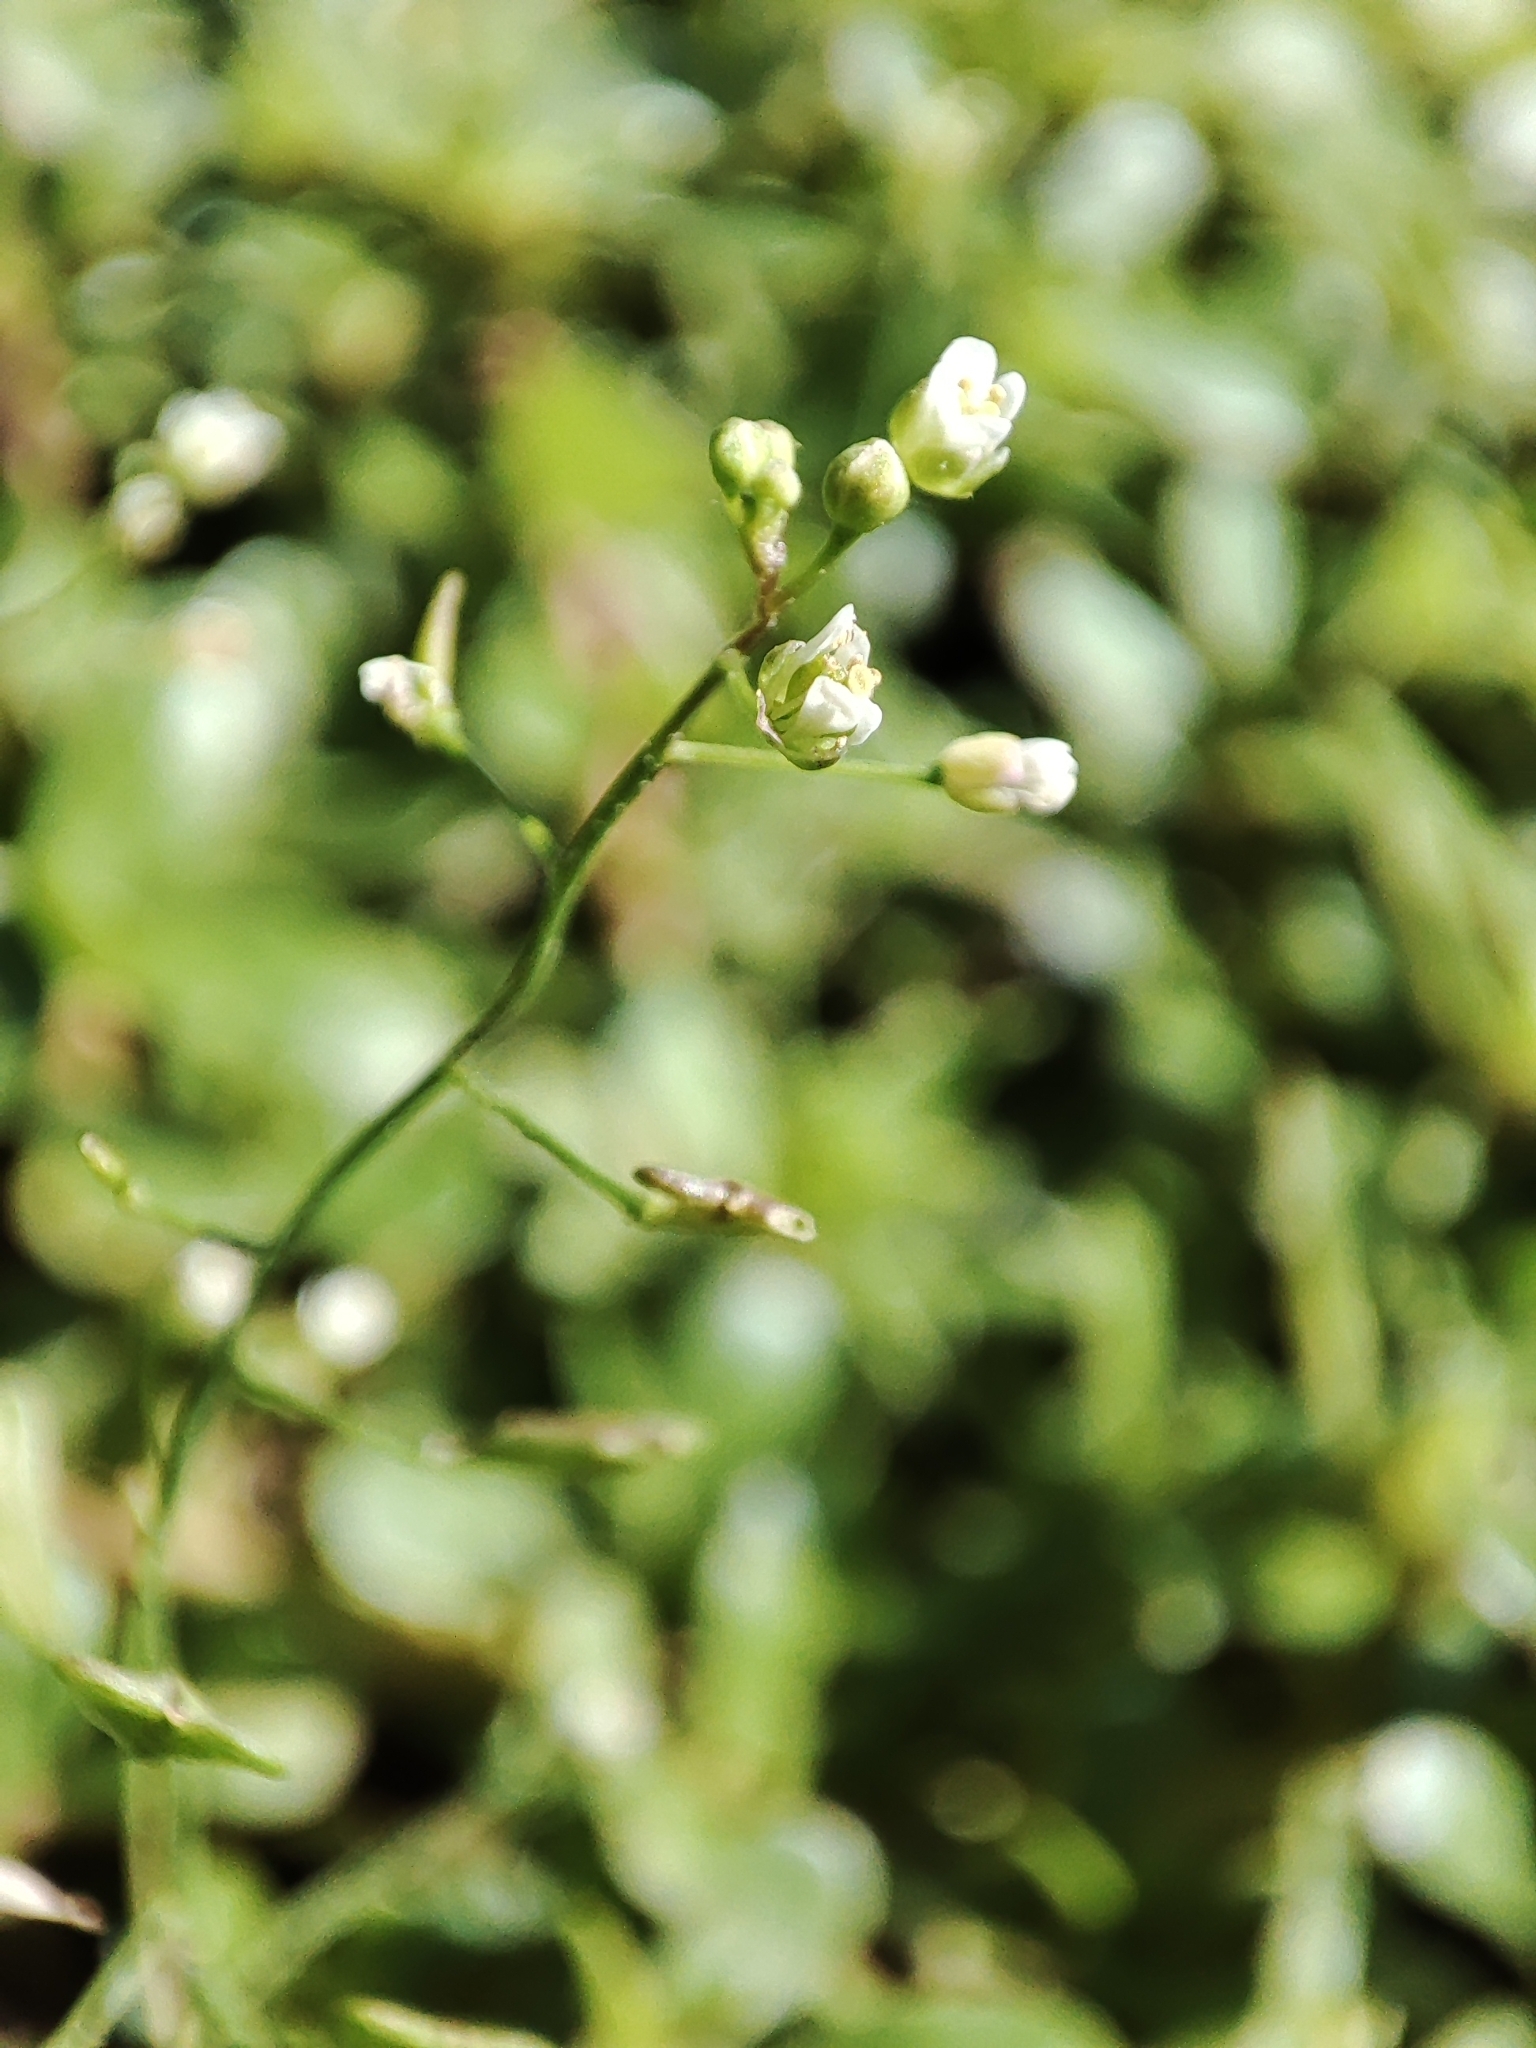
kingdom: Plantae
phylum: Tracheophyta
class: Magnoliopsida
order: Brassicales
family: Brassicaceae
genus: Capsella
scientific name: Capsella bursa-pastoris
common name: Shepherd's purse
